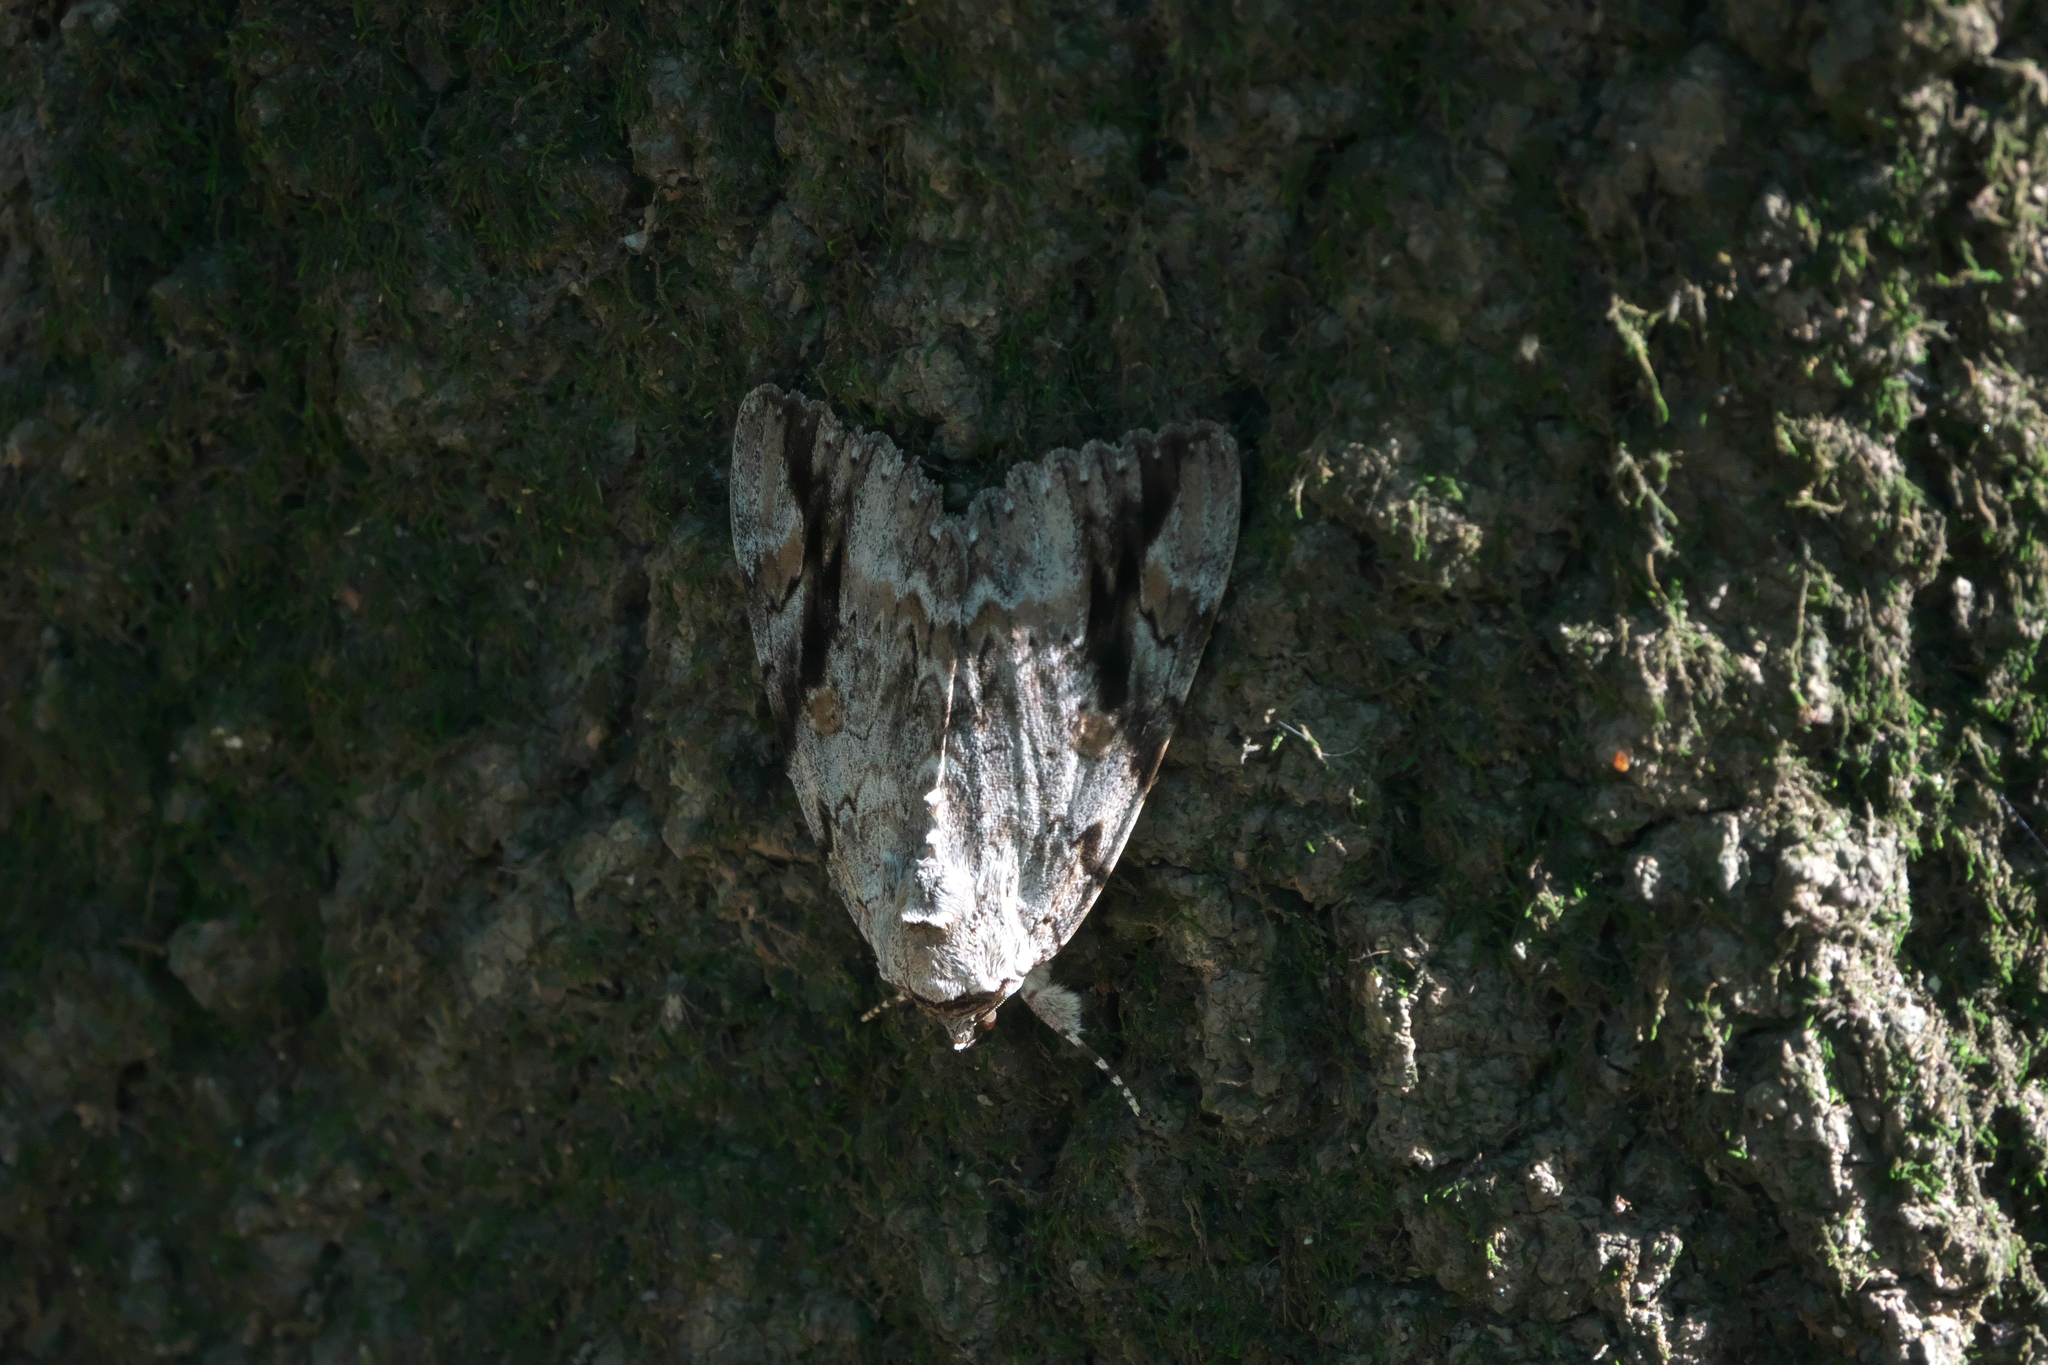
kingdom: Animalia
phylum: Arthropoda
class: Insecta
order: Lepidoptera
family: Erebidae
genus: Catocala
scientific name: Catocala maestosa
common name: Sad underwing
